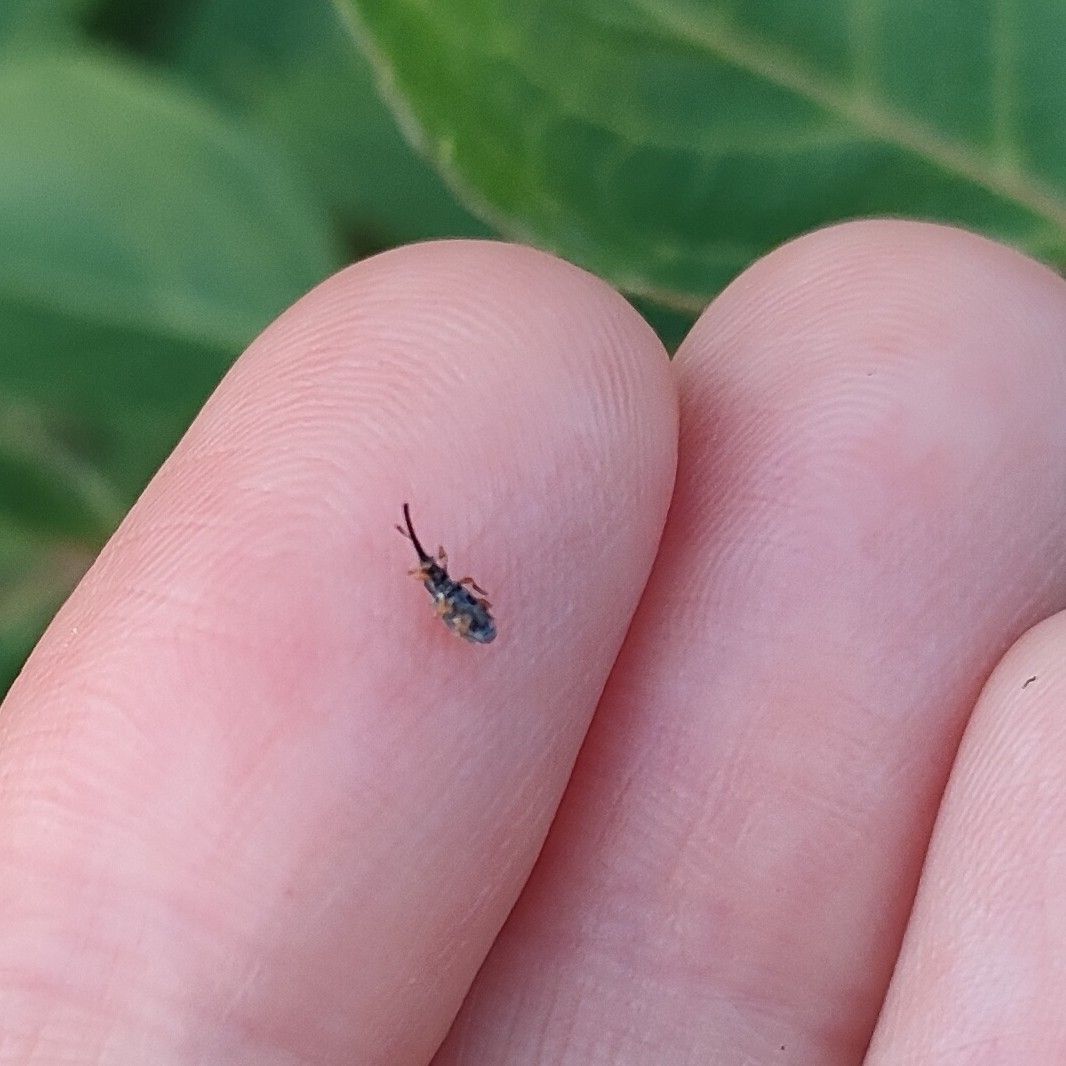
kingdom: Animalia
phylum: Arthropoda
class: Insecta
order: Coleoptera
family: Brentidae
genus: Rhopalapion
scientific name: Rhopalapion longirostre
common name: Hollyhock weevil
